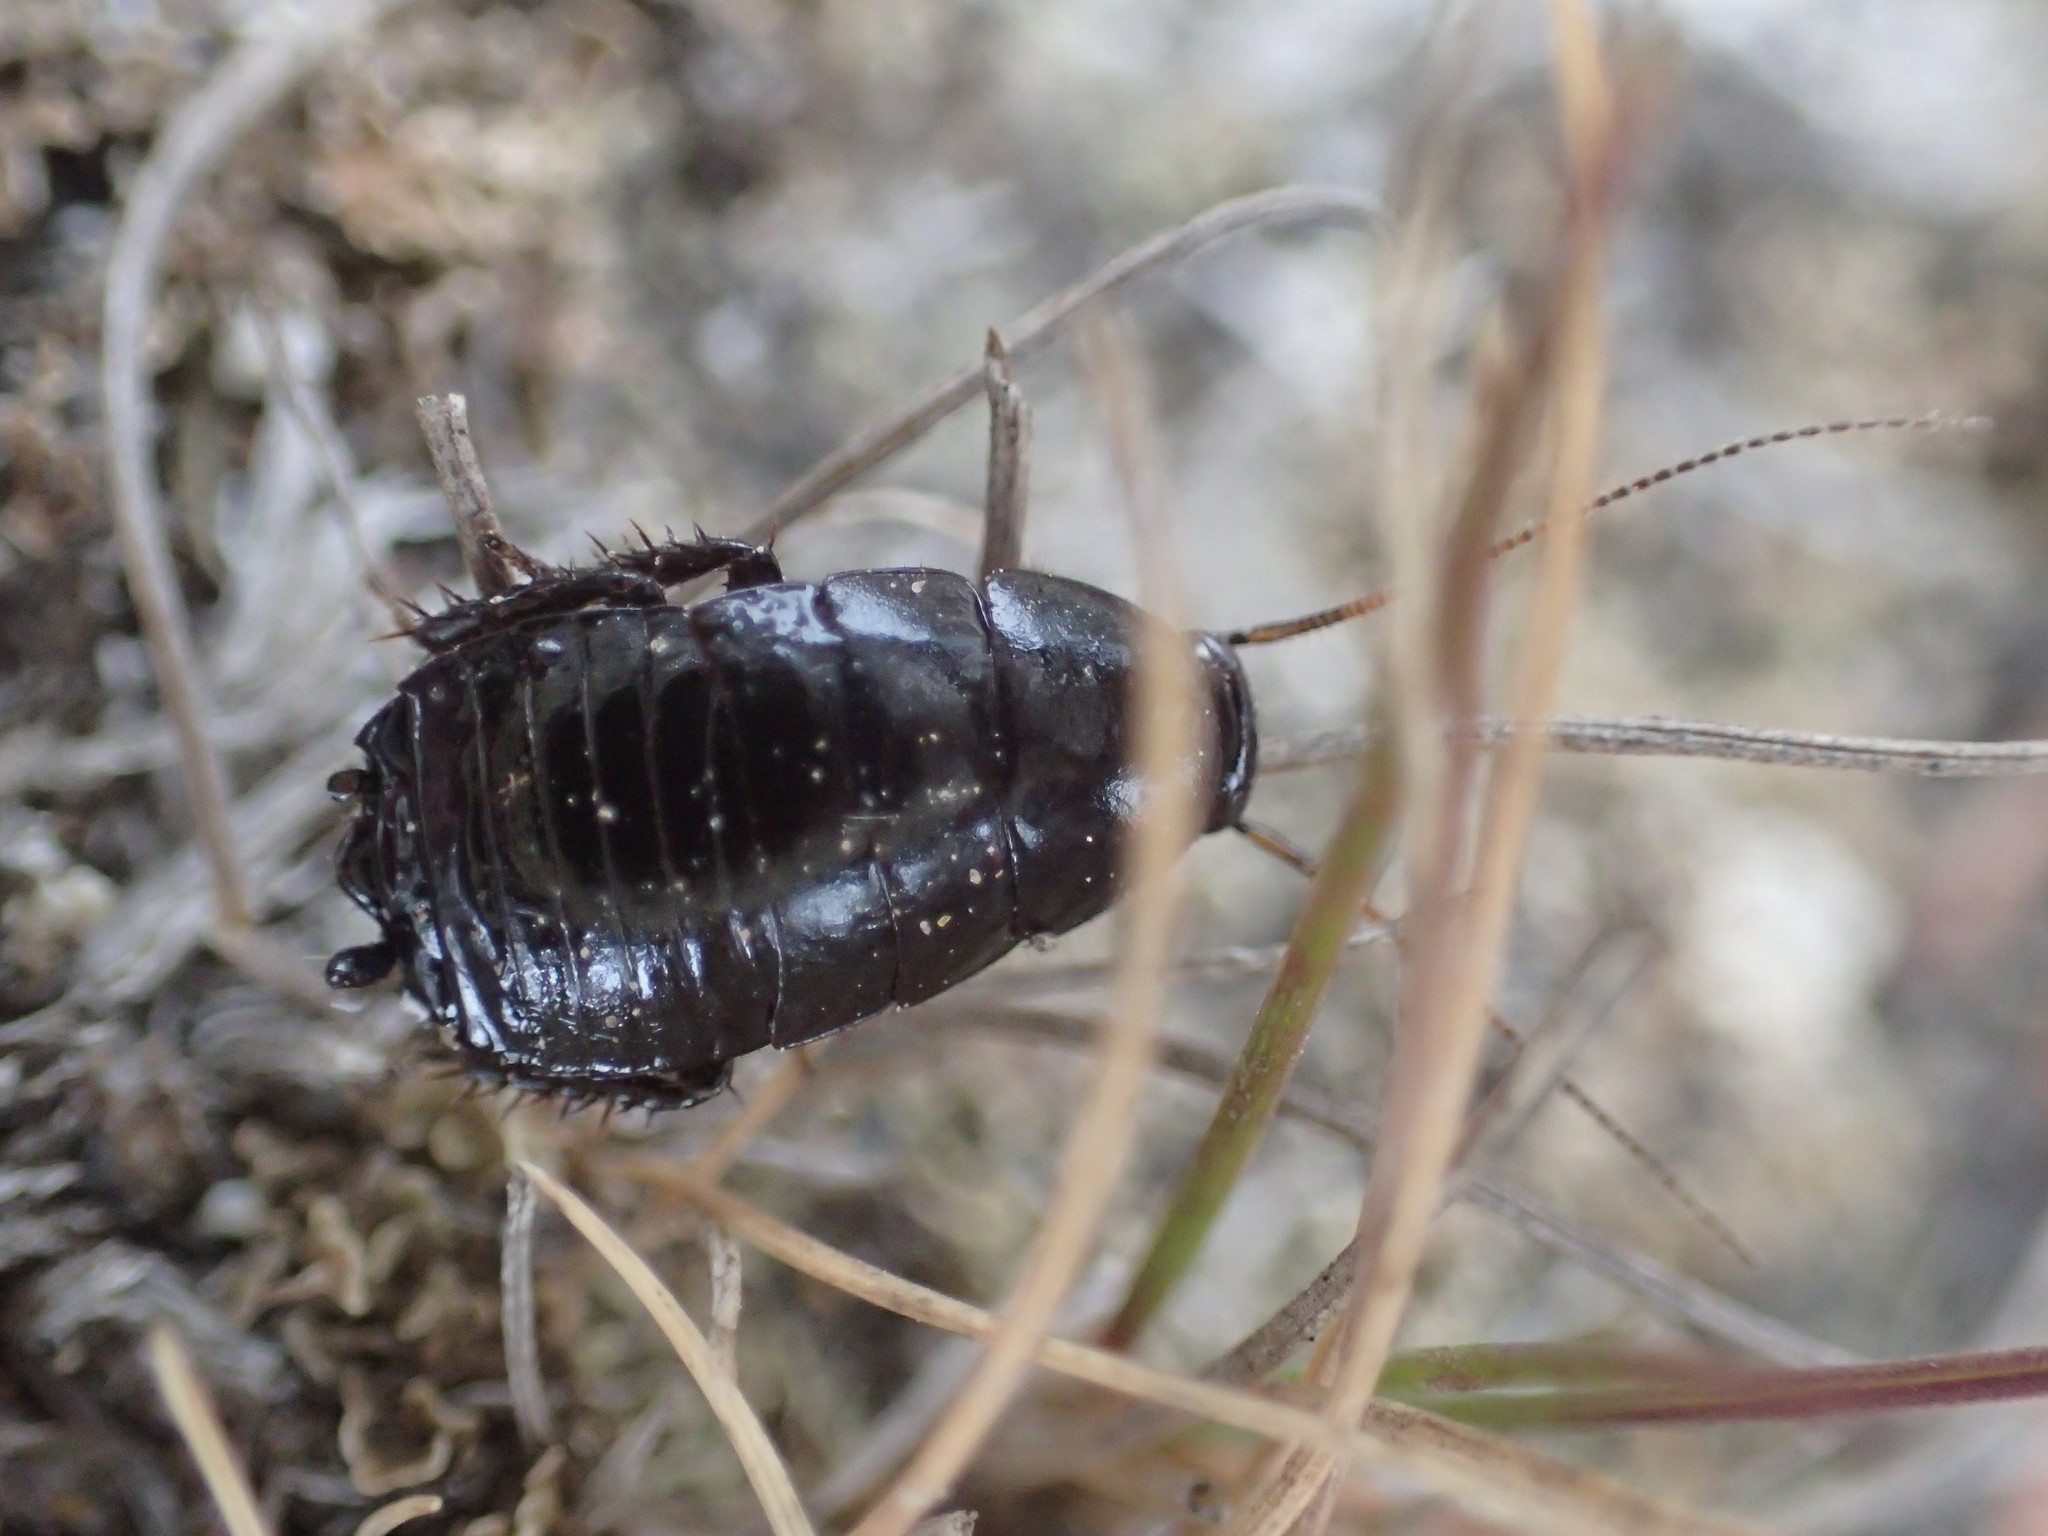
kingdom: Animalia
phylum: Arthropoda
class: Insecta
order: Blattodea
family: Blattidae
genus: Platyzosteria
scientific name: Platyzosteria melanaria
